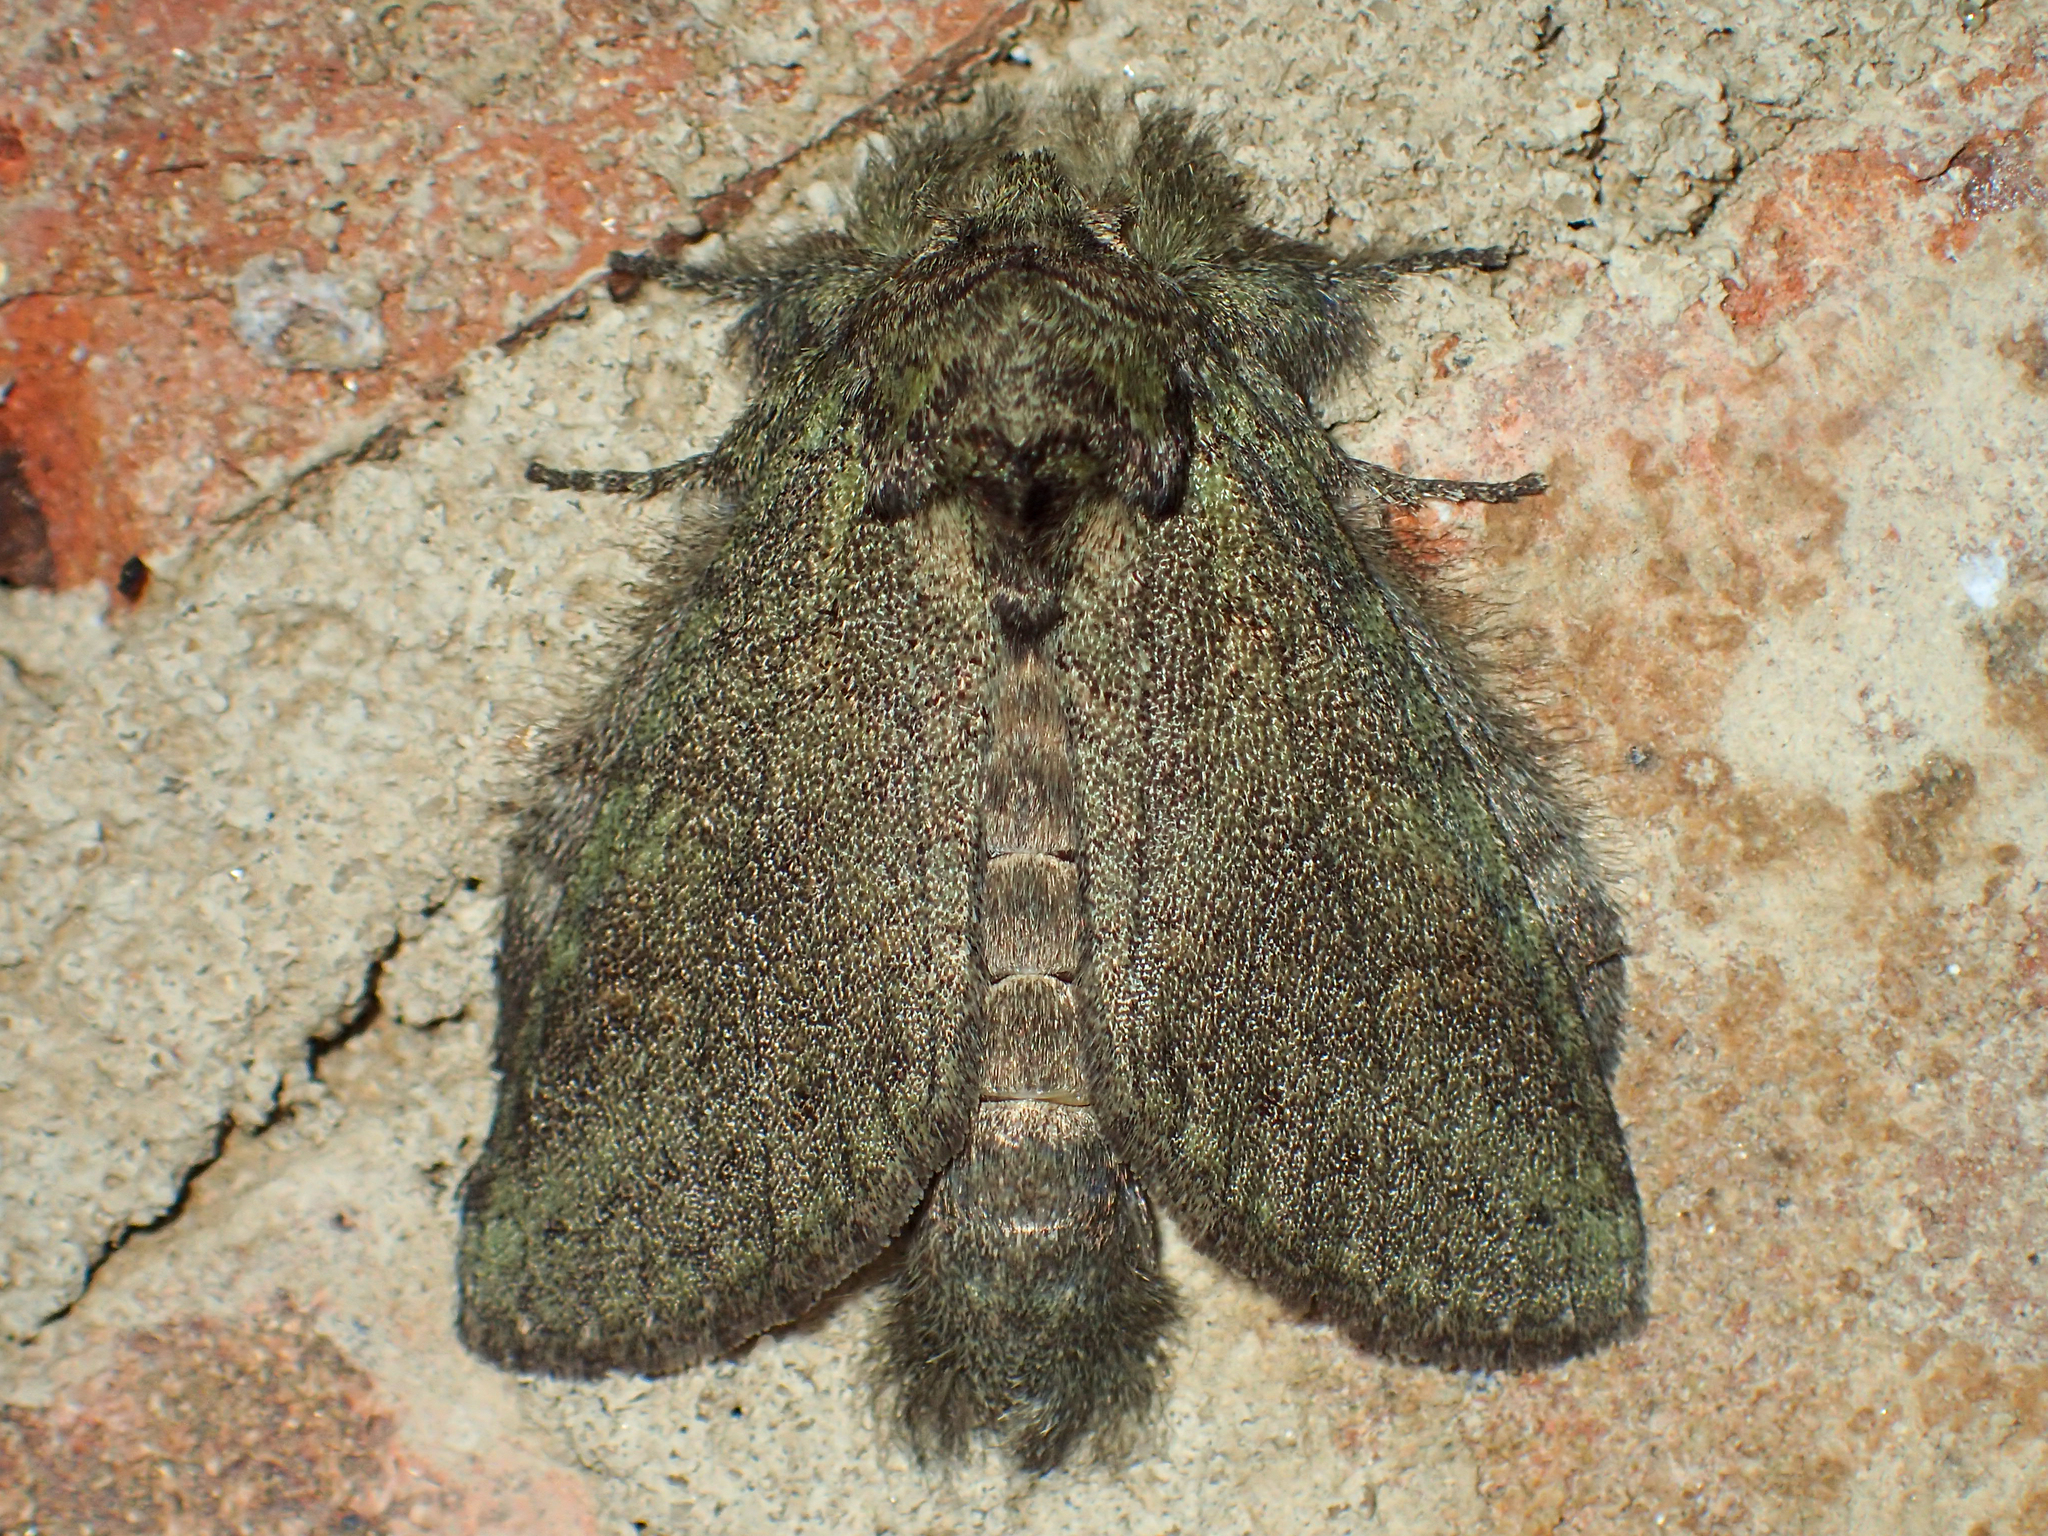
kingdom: Animalia
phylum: Arthropoda
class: Insecta
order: Lepidoptera
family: Notodontidae
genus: Disphragis
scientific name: Disphragis Cecrita guttivitta
